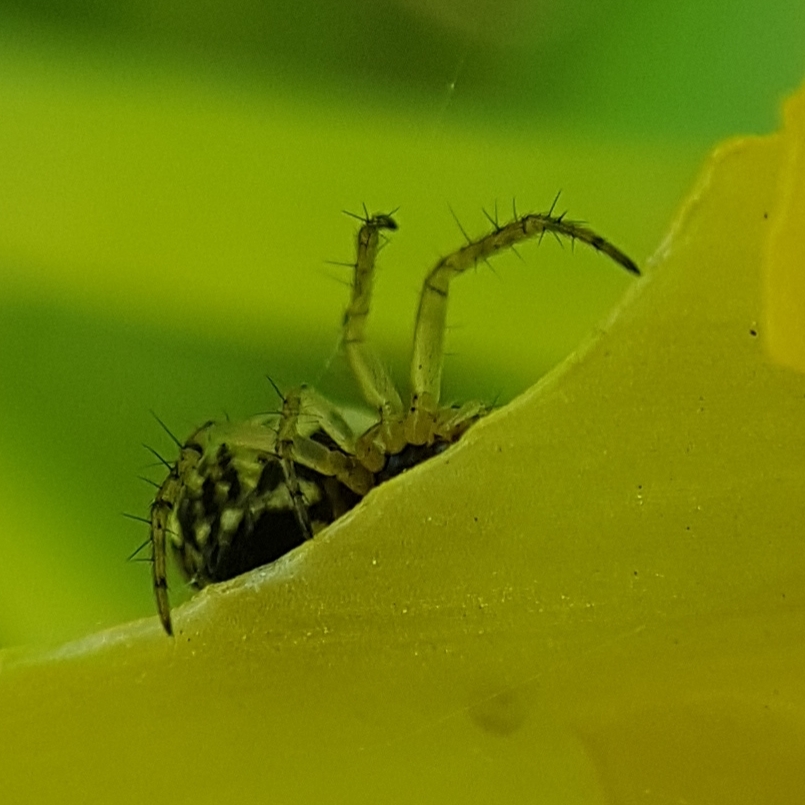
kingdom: Animalia
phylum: Arthropoda
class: Arachnida
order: Araneae
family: Araneidae
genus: Mangora
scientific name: Mangora acalypha
